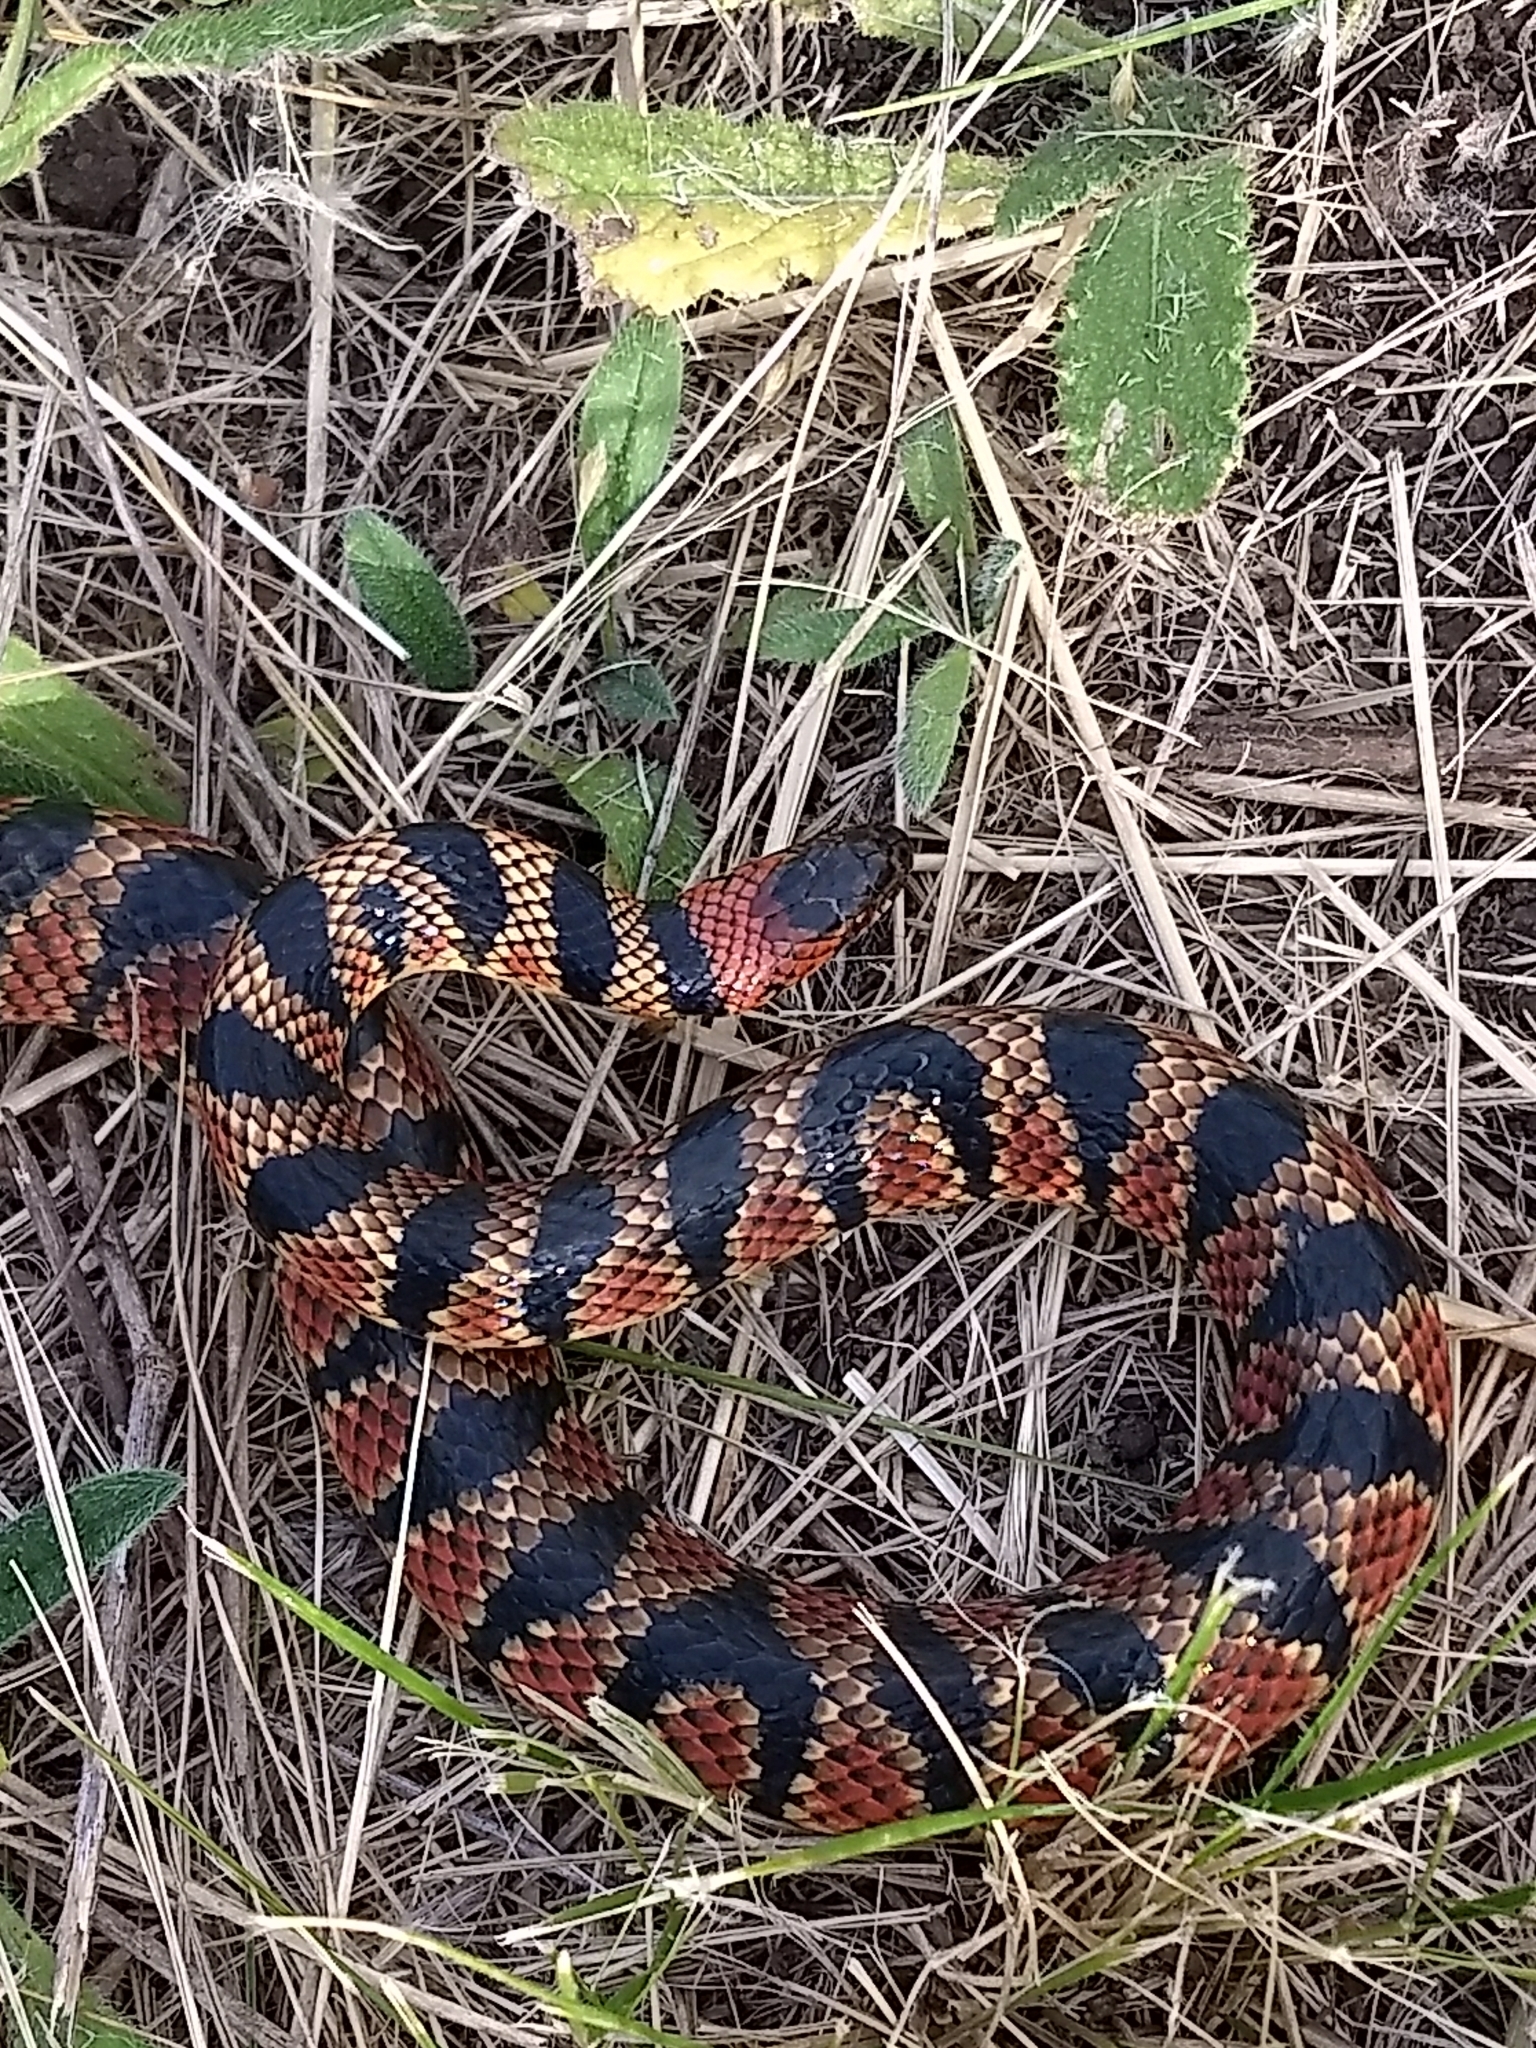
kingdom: Animalia
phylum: Chordata
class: Squamata
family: Colubridae
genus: Oxyrhopus
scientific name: Oxyrhopus rhombifer
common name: Amazon false coral snake
